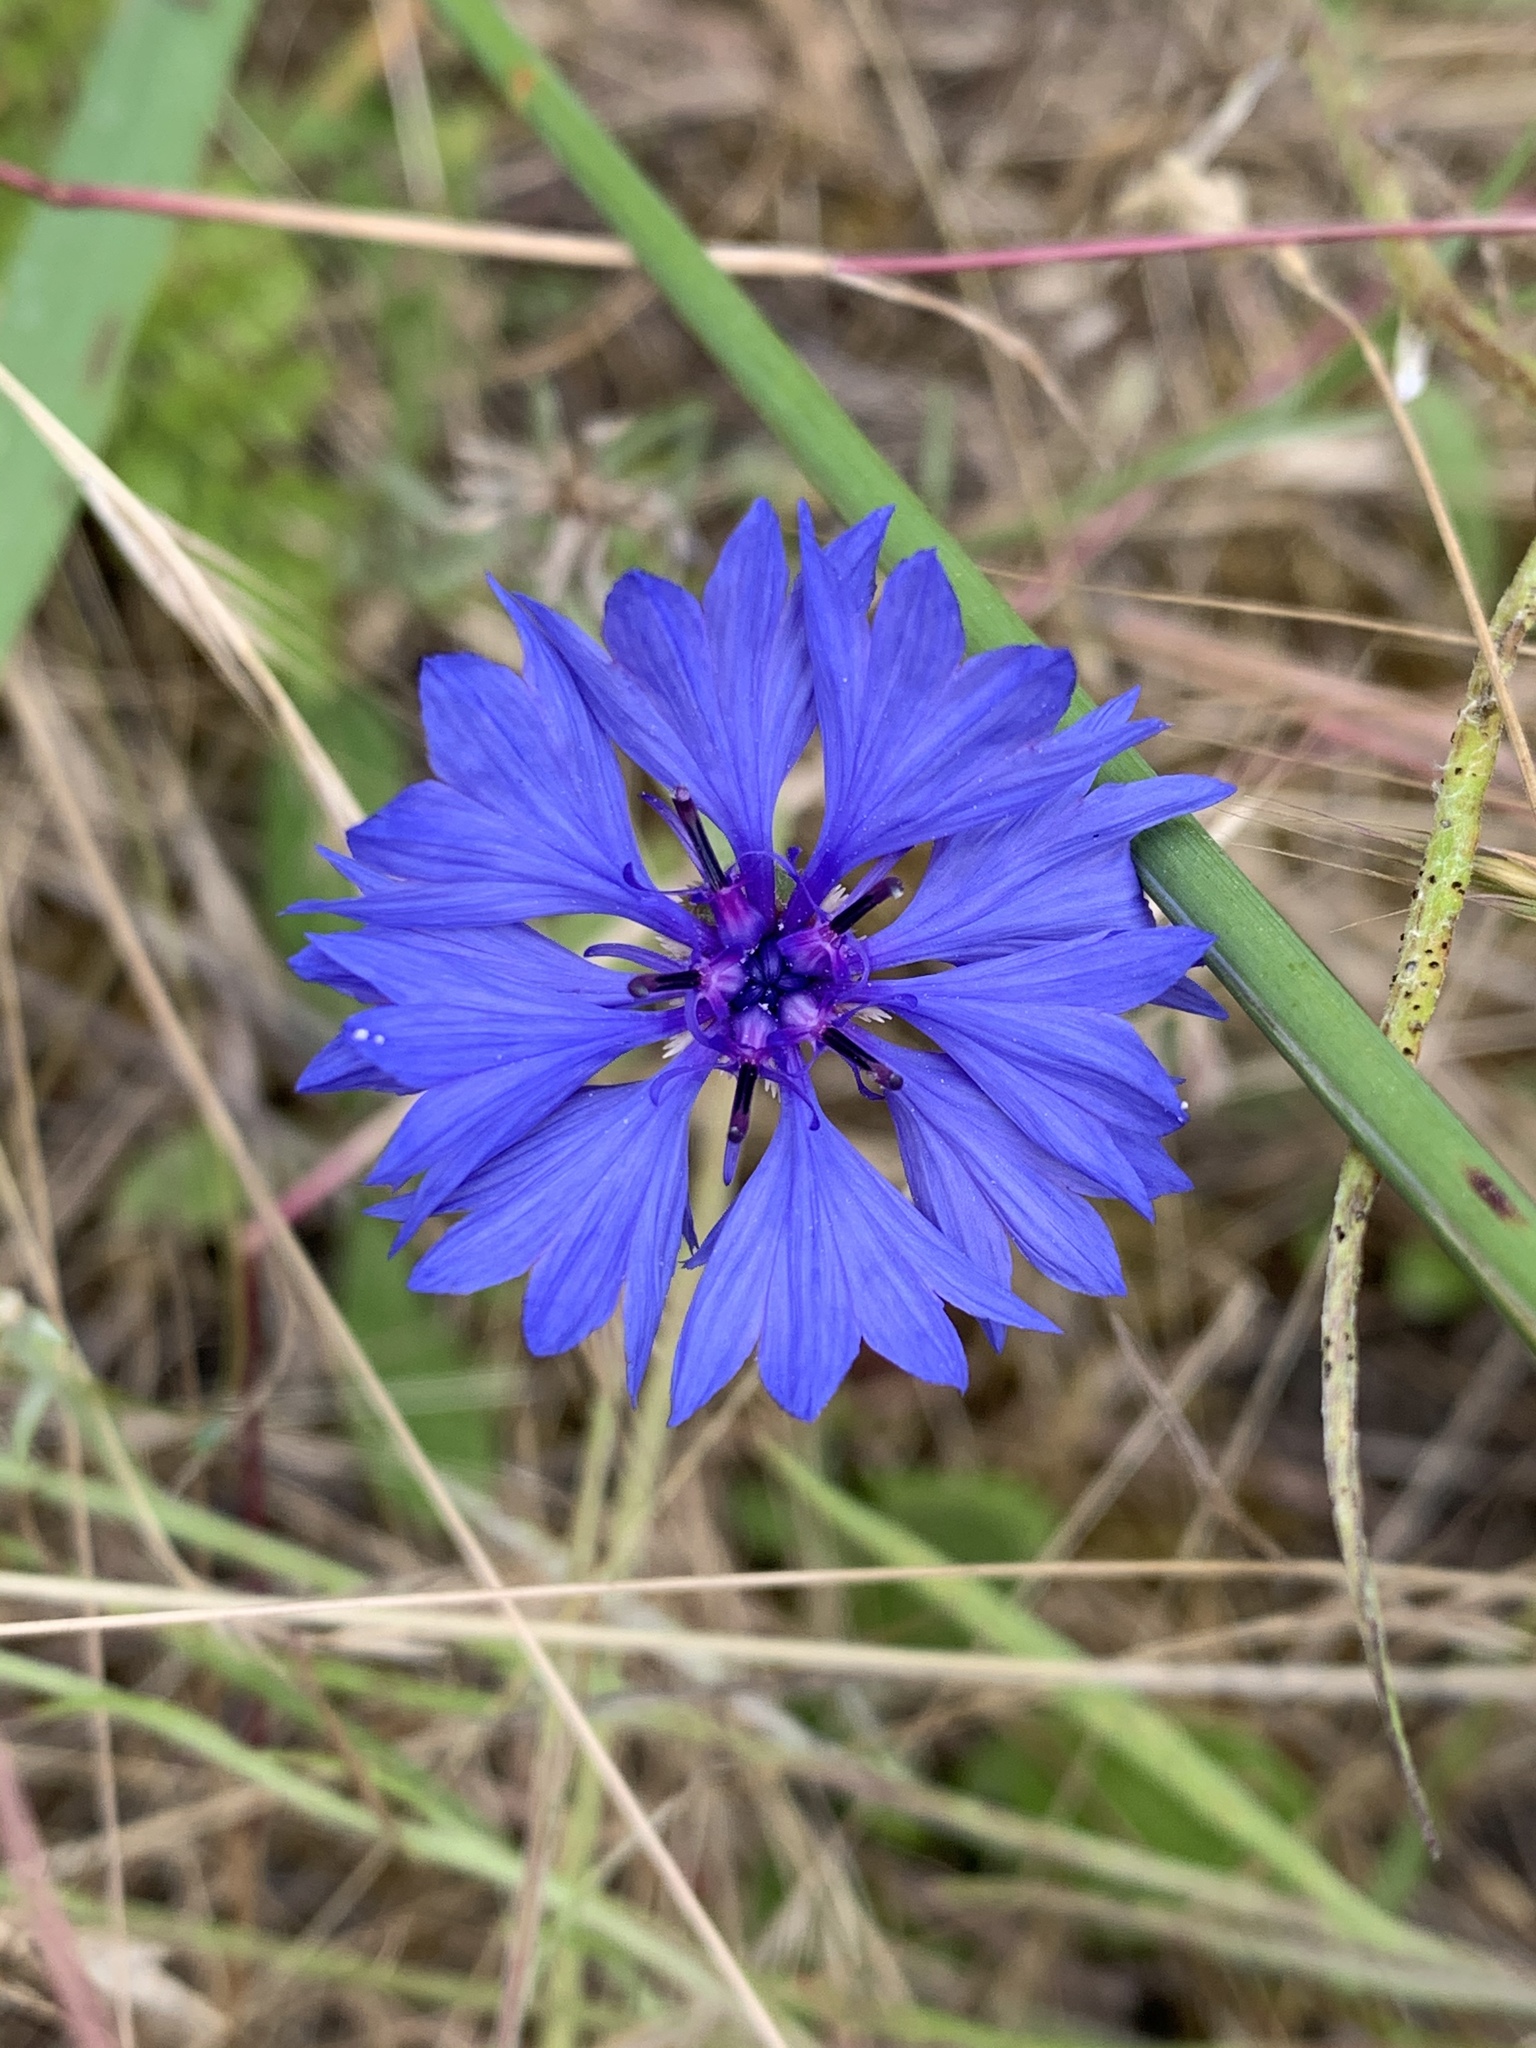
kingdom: Plantae
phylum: Tracheophyta
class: Magnoliopsida
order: Asterales
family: Asteraceae
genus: Centaurea
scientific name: Centaurea cyanus
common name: Cornflower
